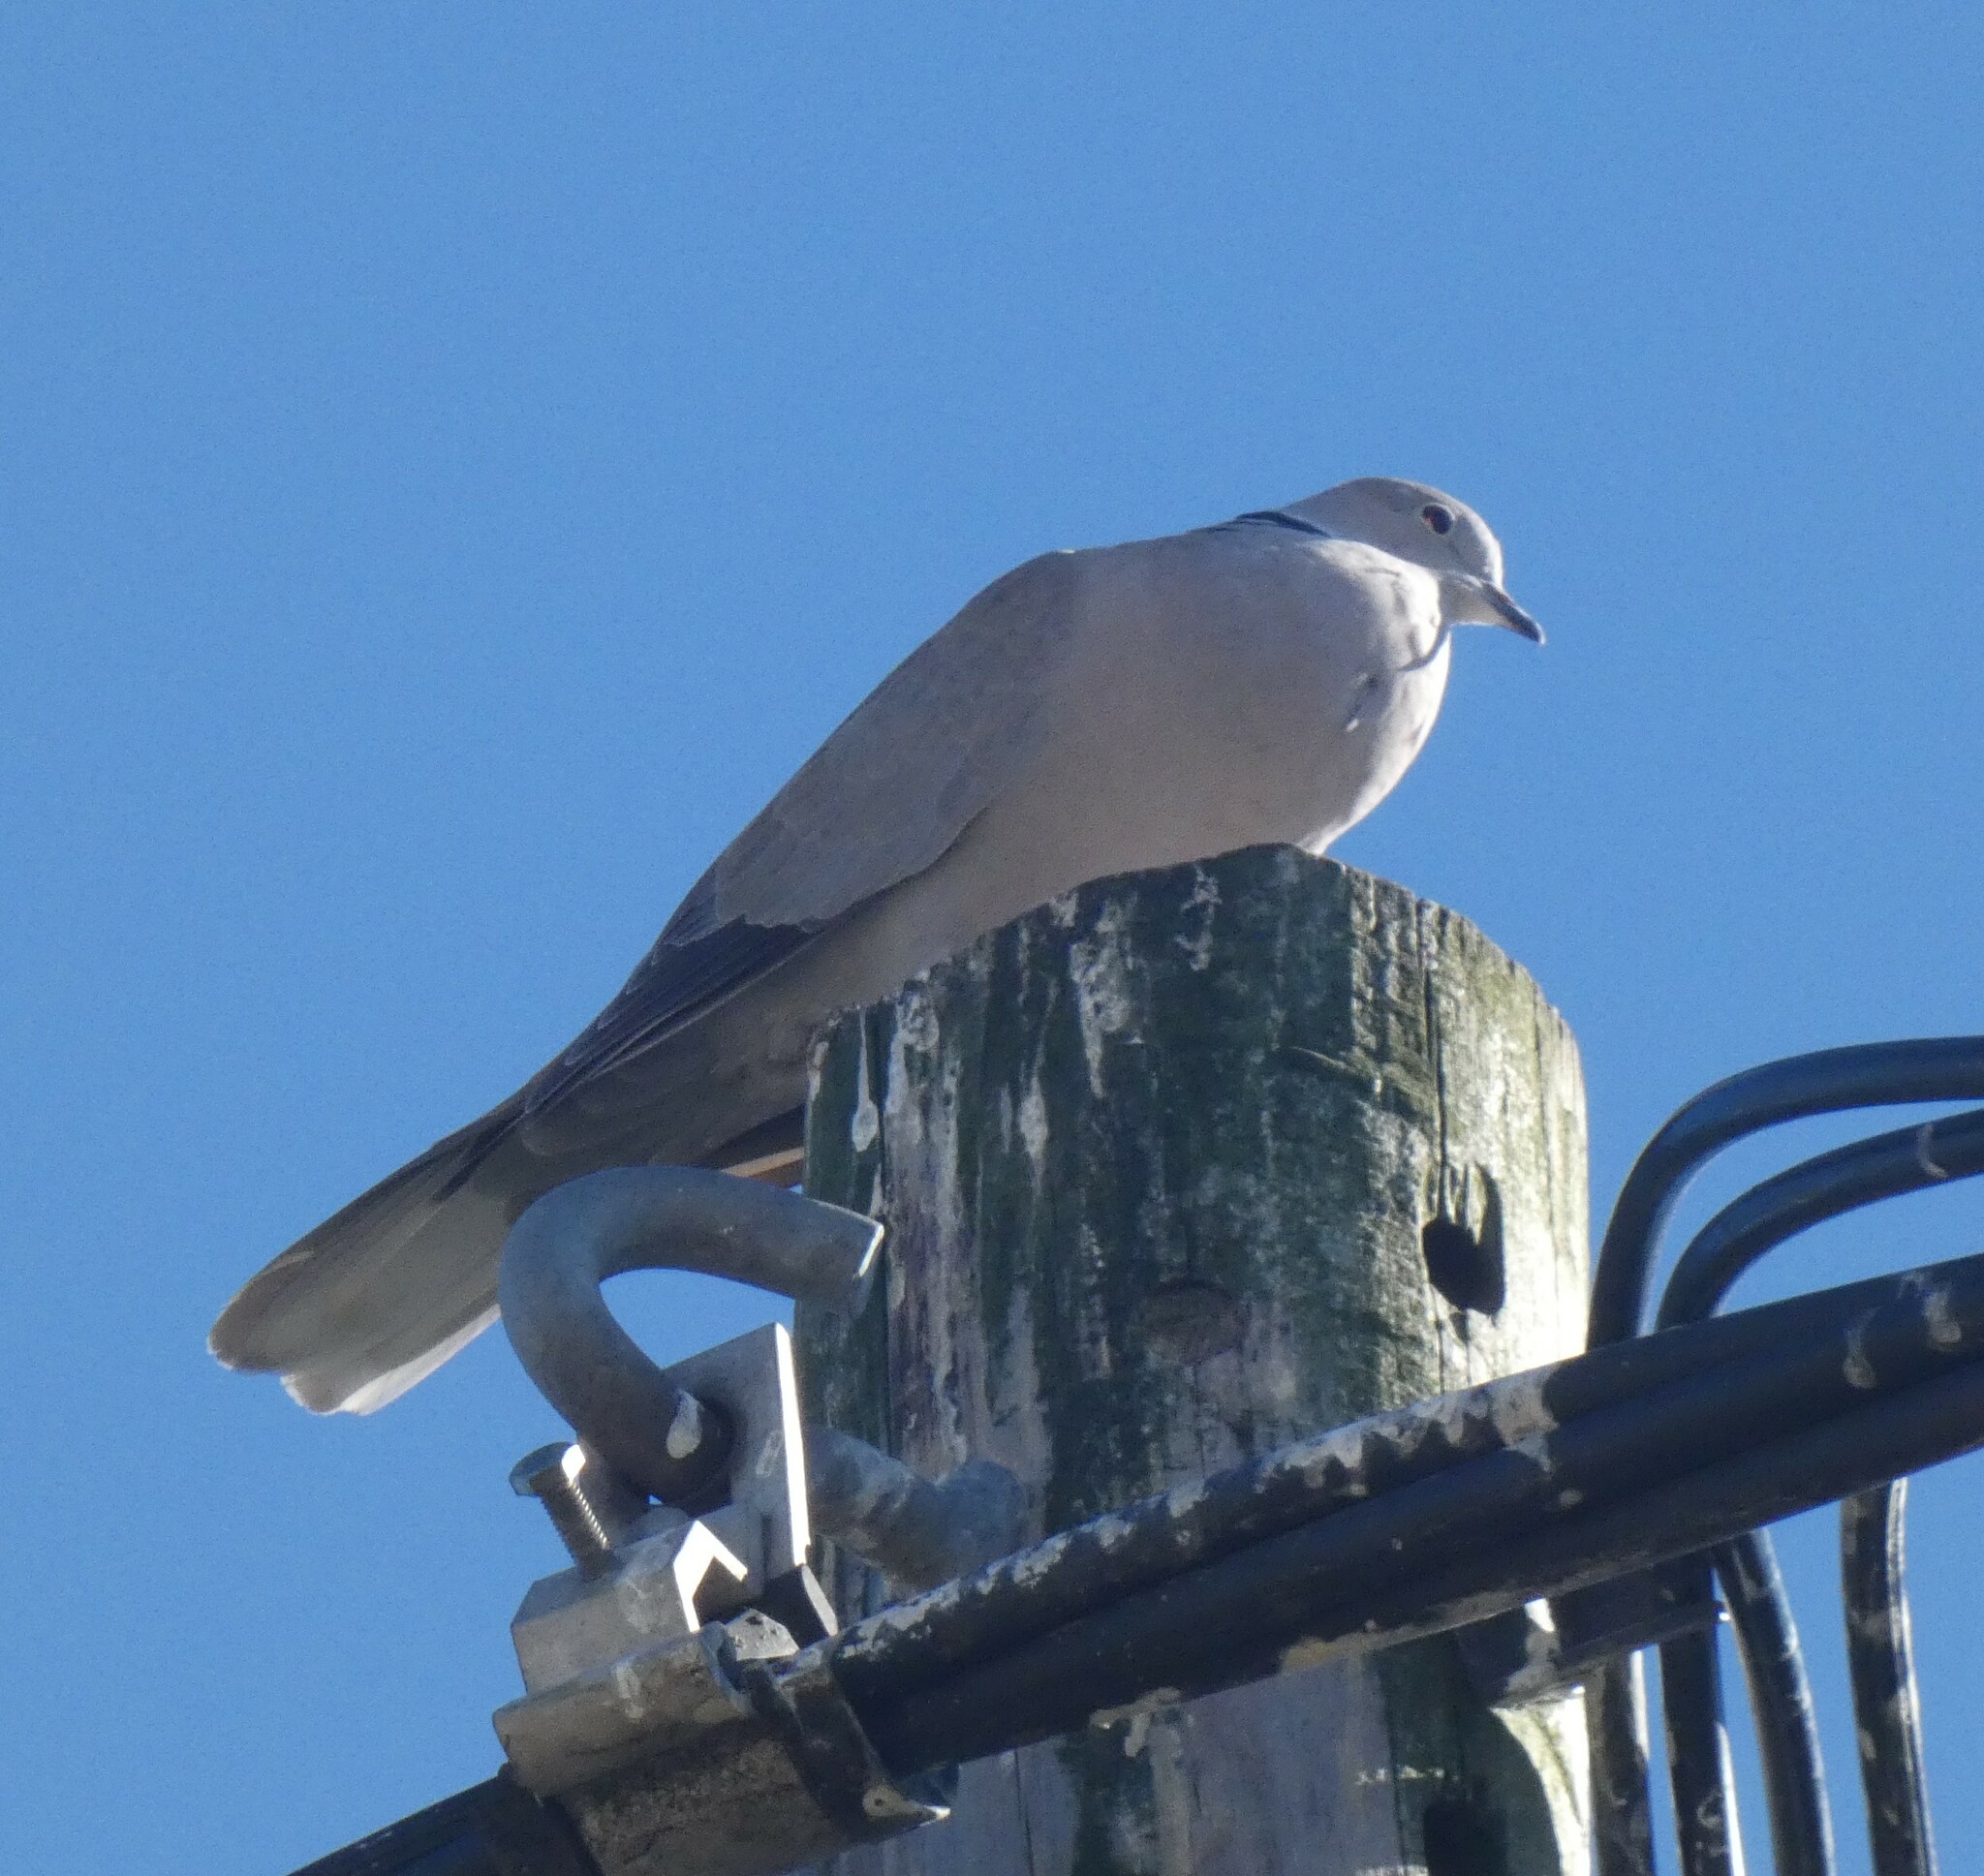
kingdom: Animalia
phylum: Chordata
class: Aves
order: Columbiformes
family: Columbidae
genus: Streptopelia
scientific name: Streptopelia decaocto
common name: Eurasian collared dove
